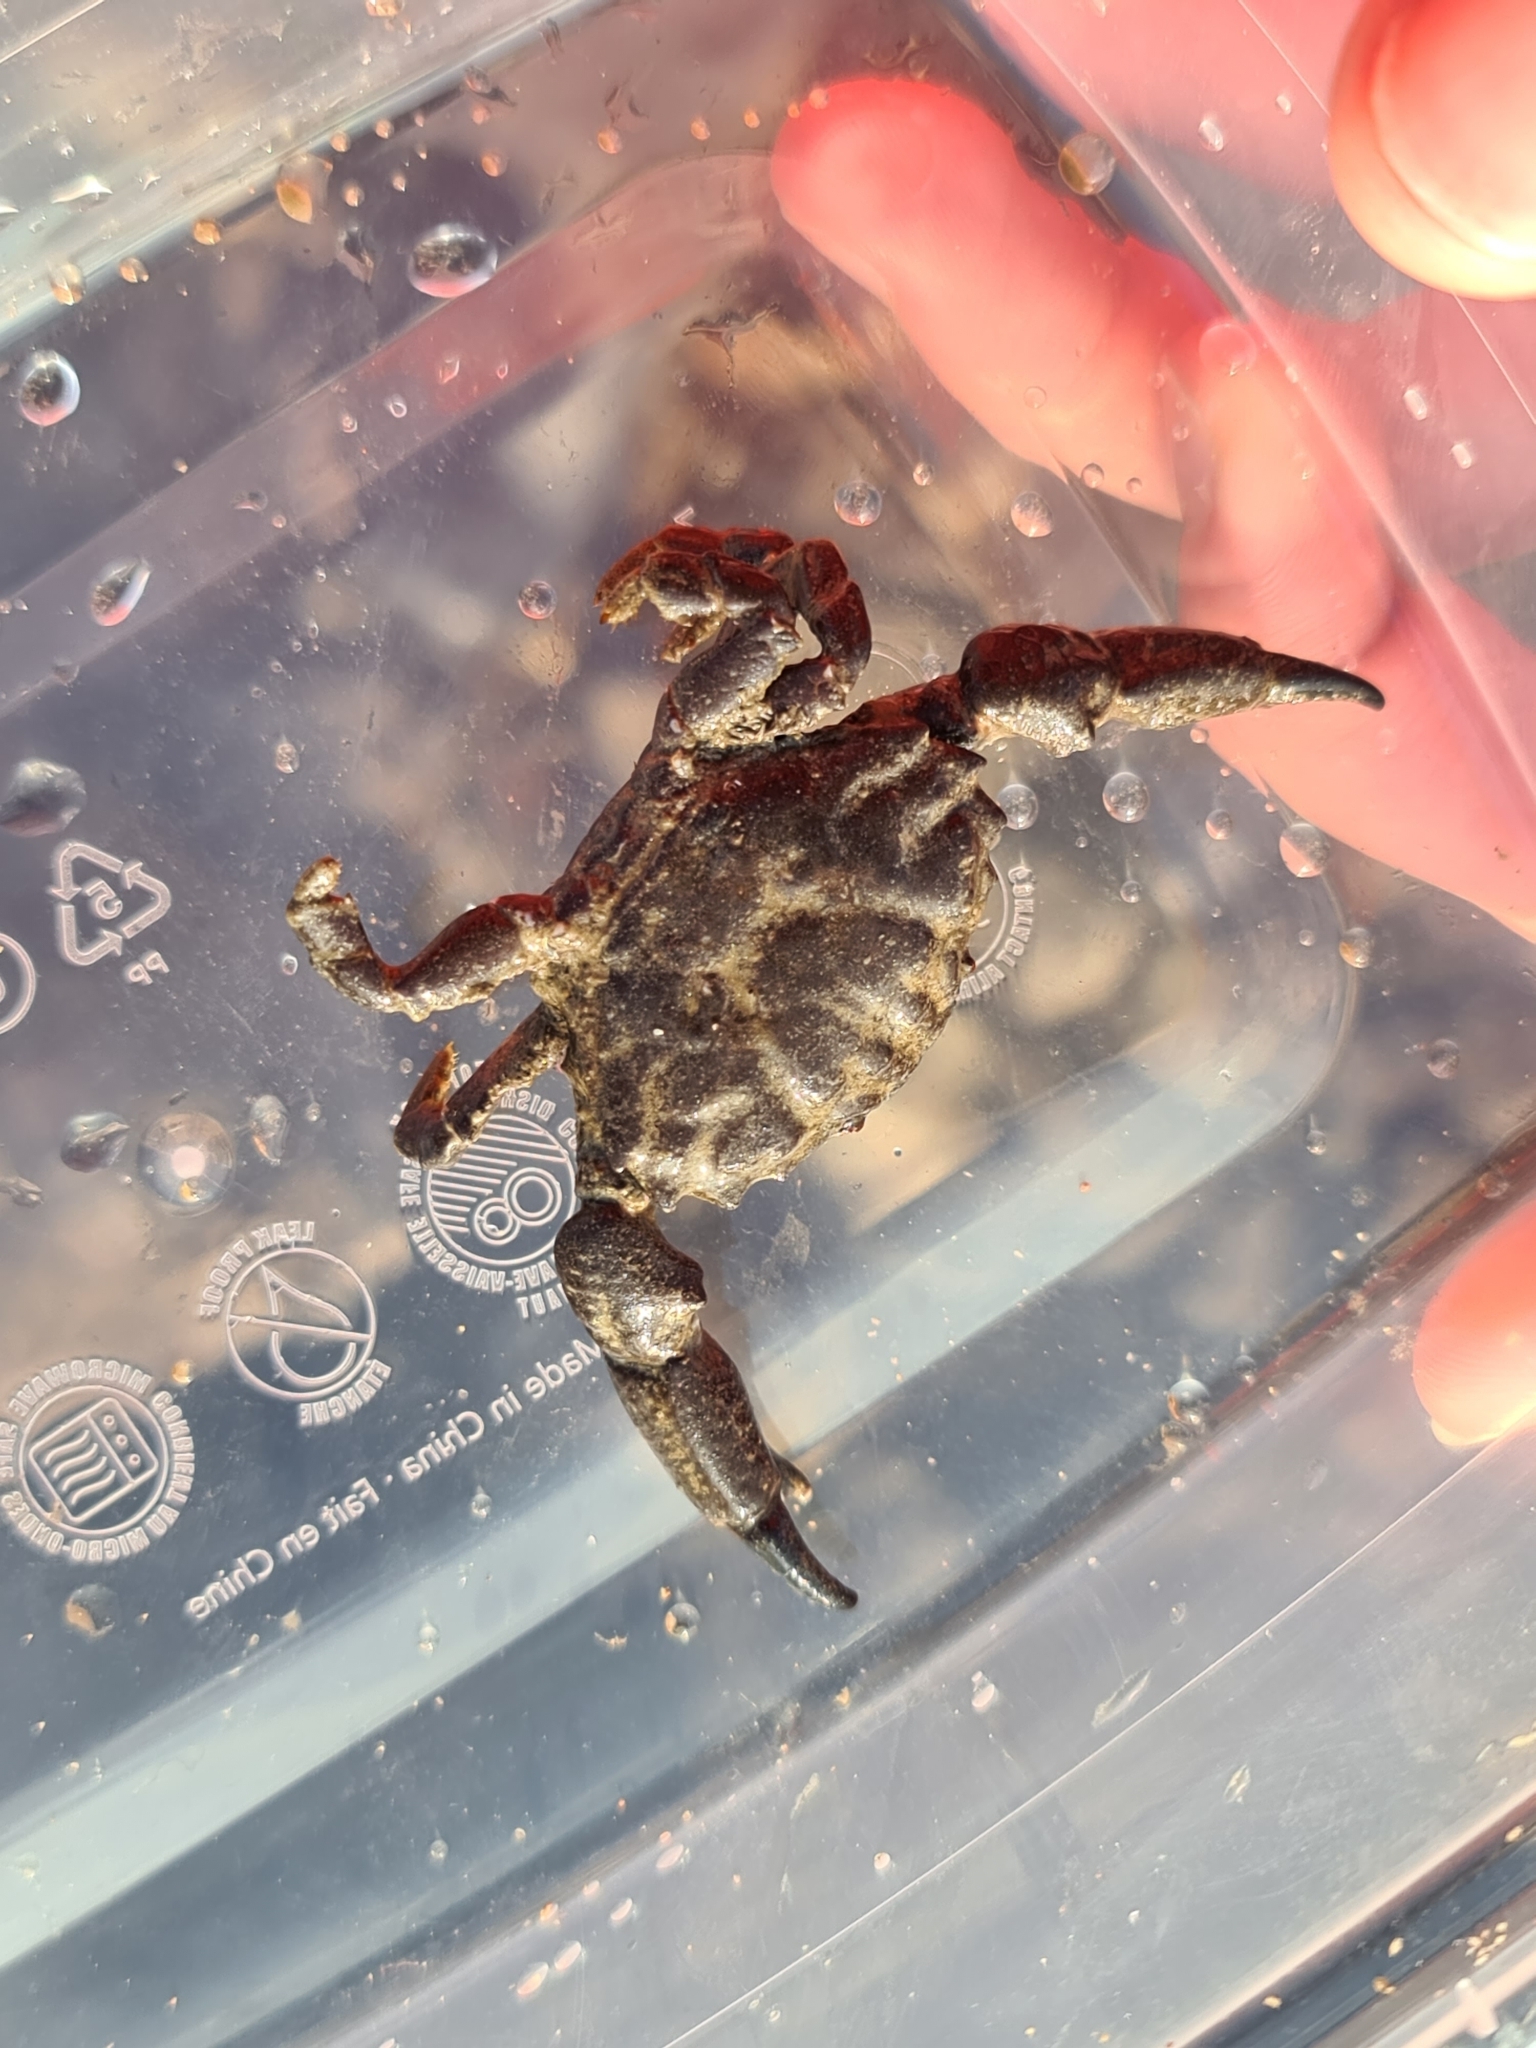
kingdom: Animalia
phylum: Arthropoda
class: Malacostraca
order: Decapoda
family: Xanthidae
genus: Xantho
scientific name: Xantho hydrophilus
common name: Montagu's crab
